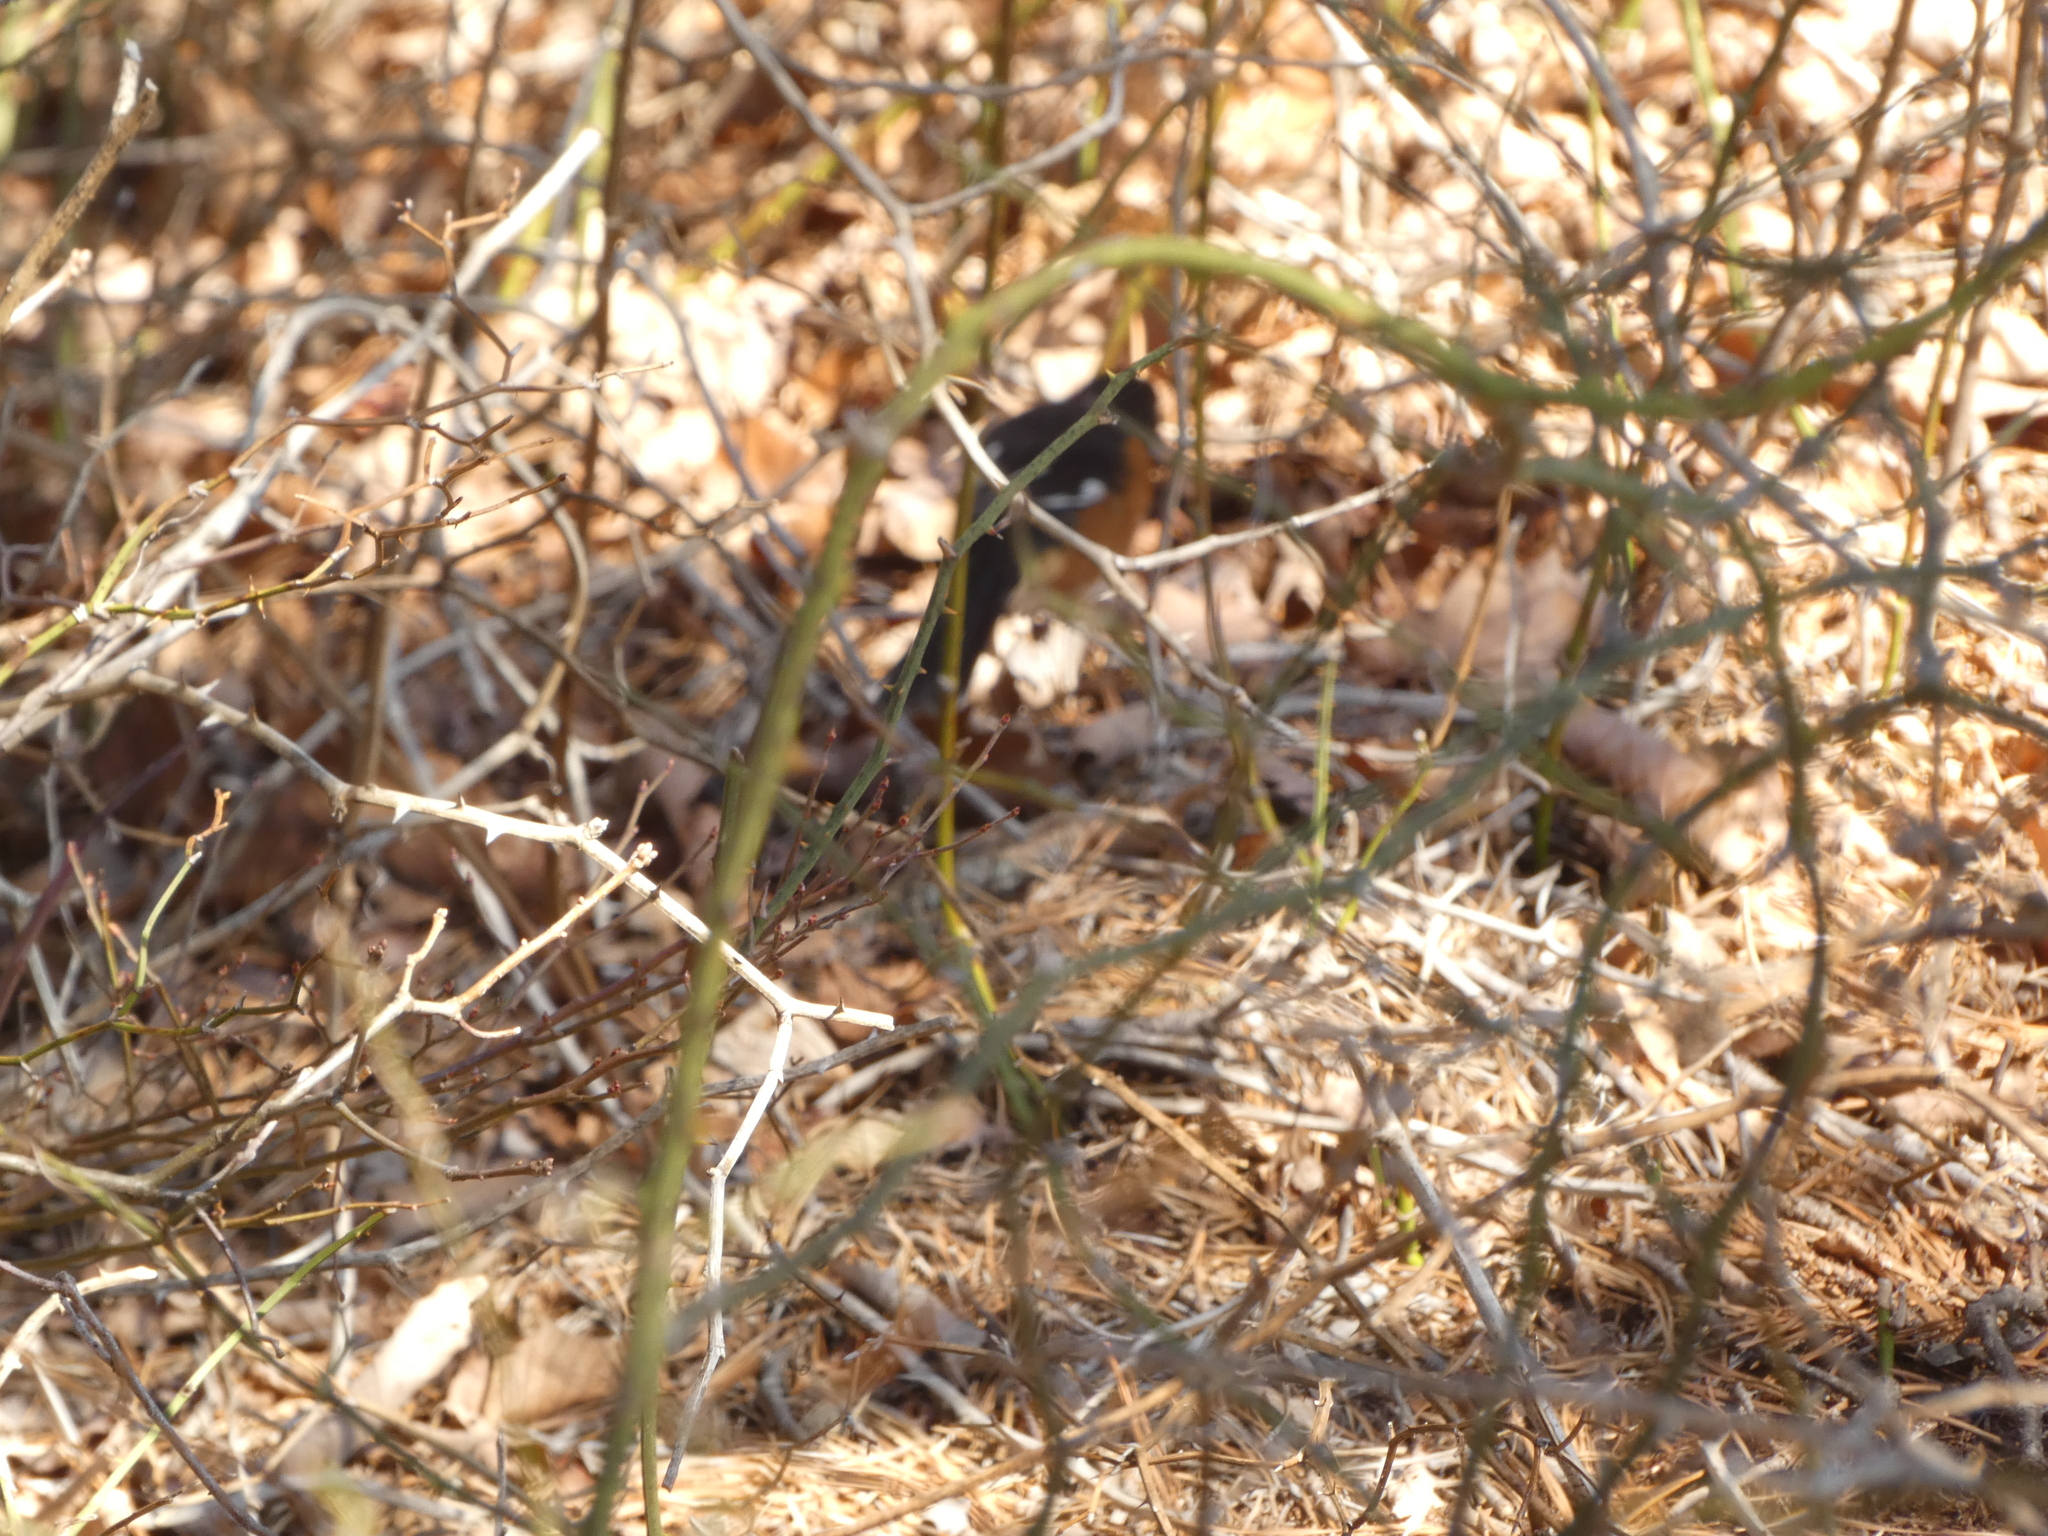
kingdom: Animalia
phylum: Chordata
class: Aves
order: Passeriformes
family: Passerellidae
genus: Pipilo
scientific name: Pipilo erythrophthalmus
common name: Eastern towhee
